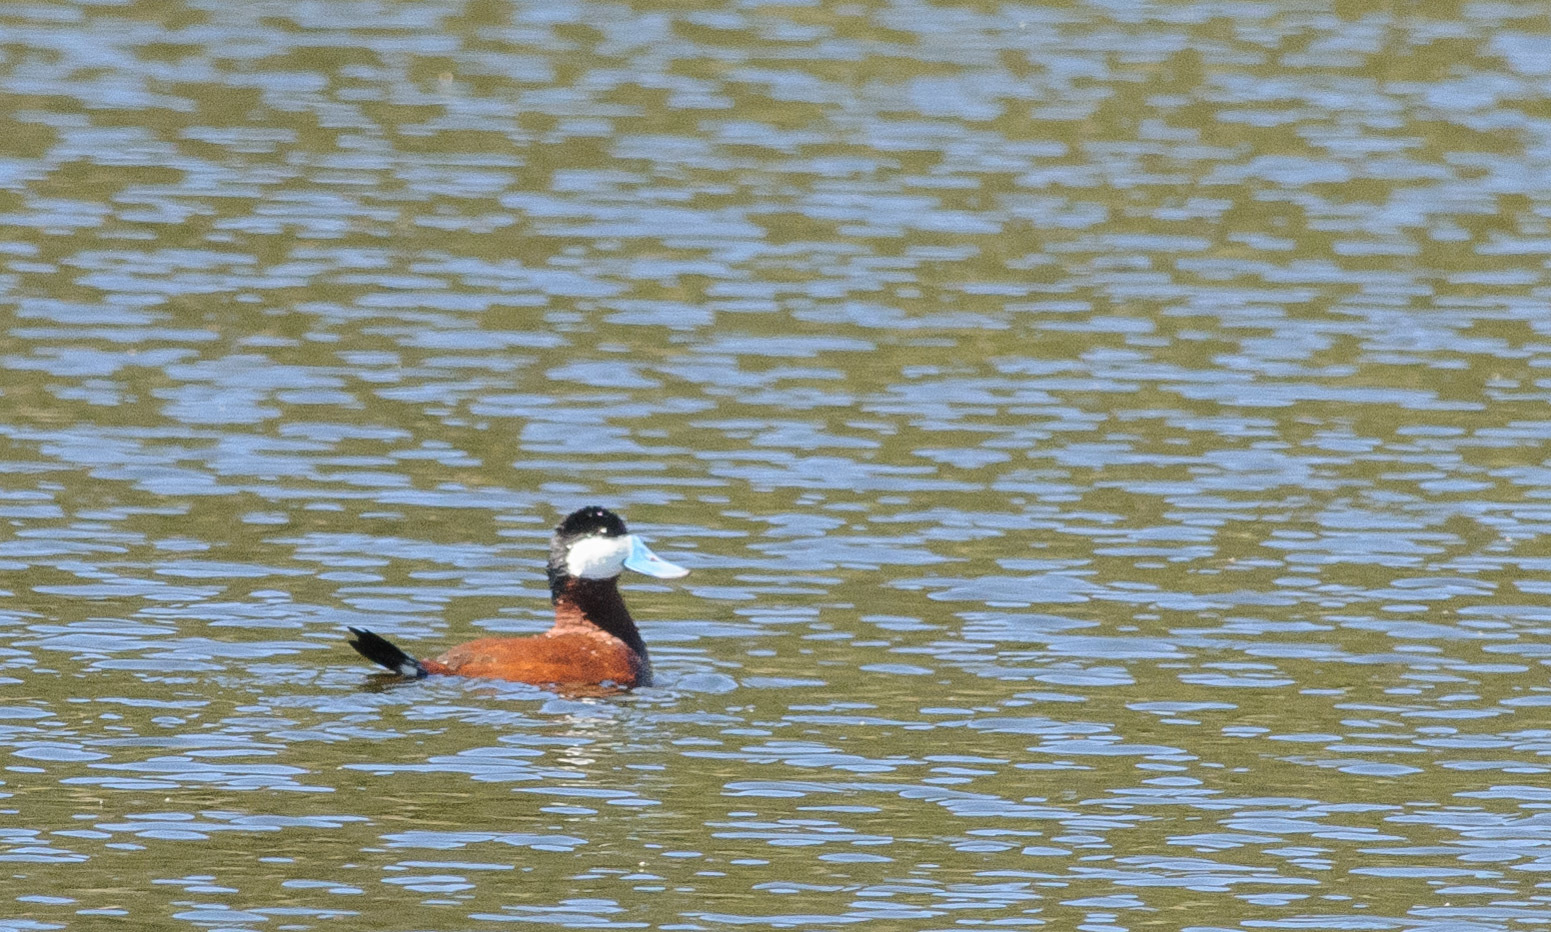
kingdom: Animalia
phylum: Chordata
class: Aves
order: Anseriformes
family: Anatidae
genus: Oxyura
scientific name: Oxyura jamaicensis
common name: Ruddy duck
